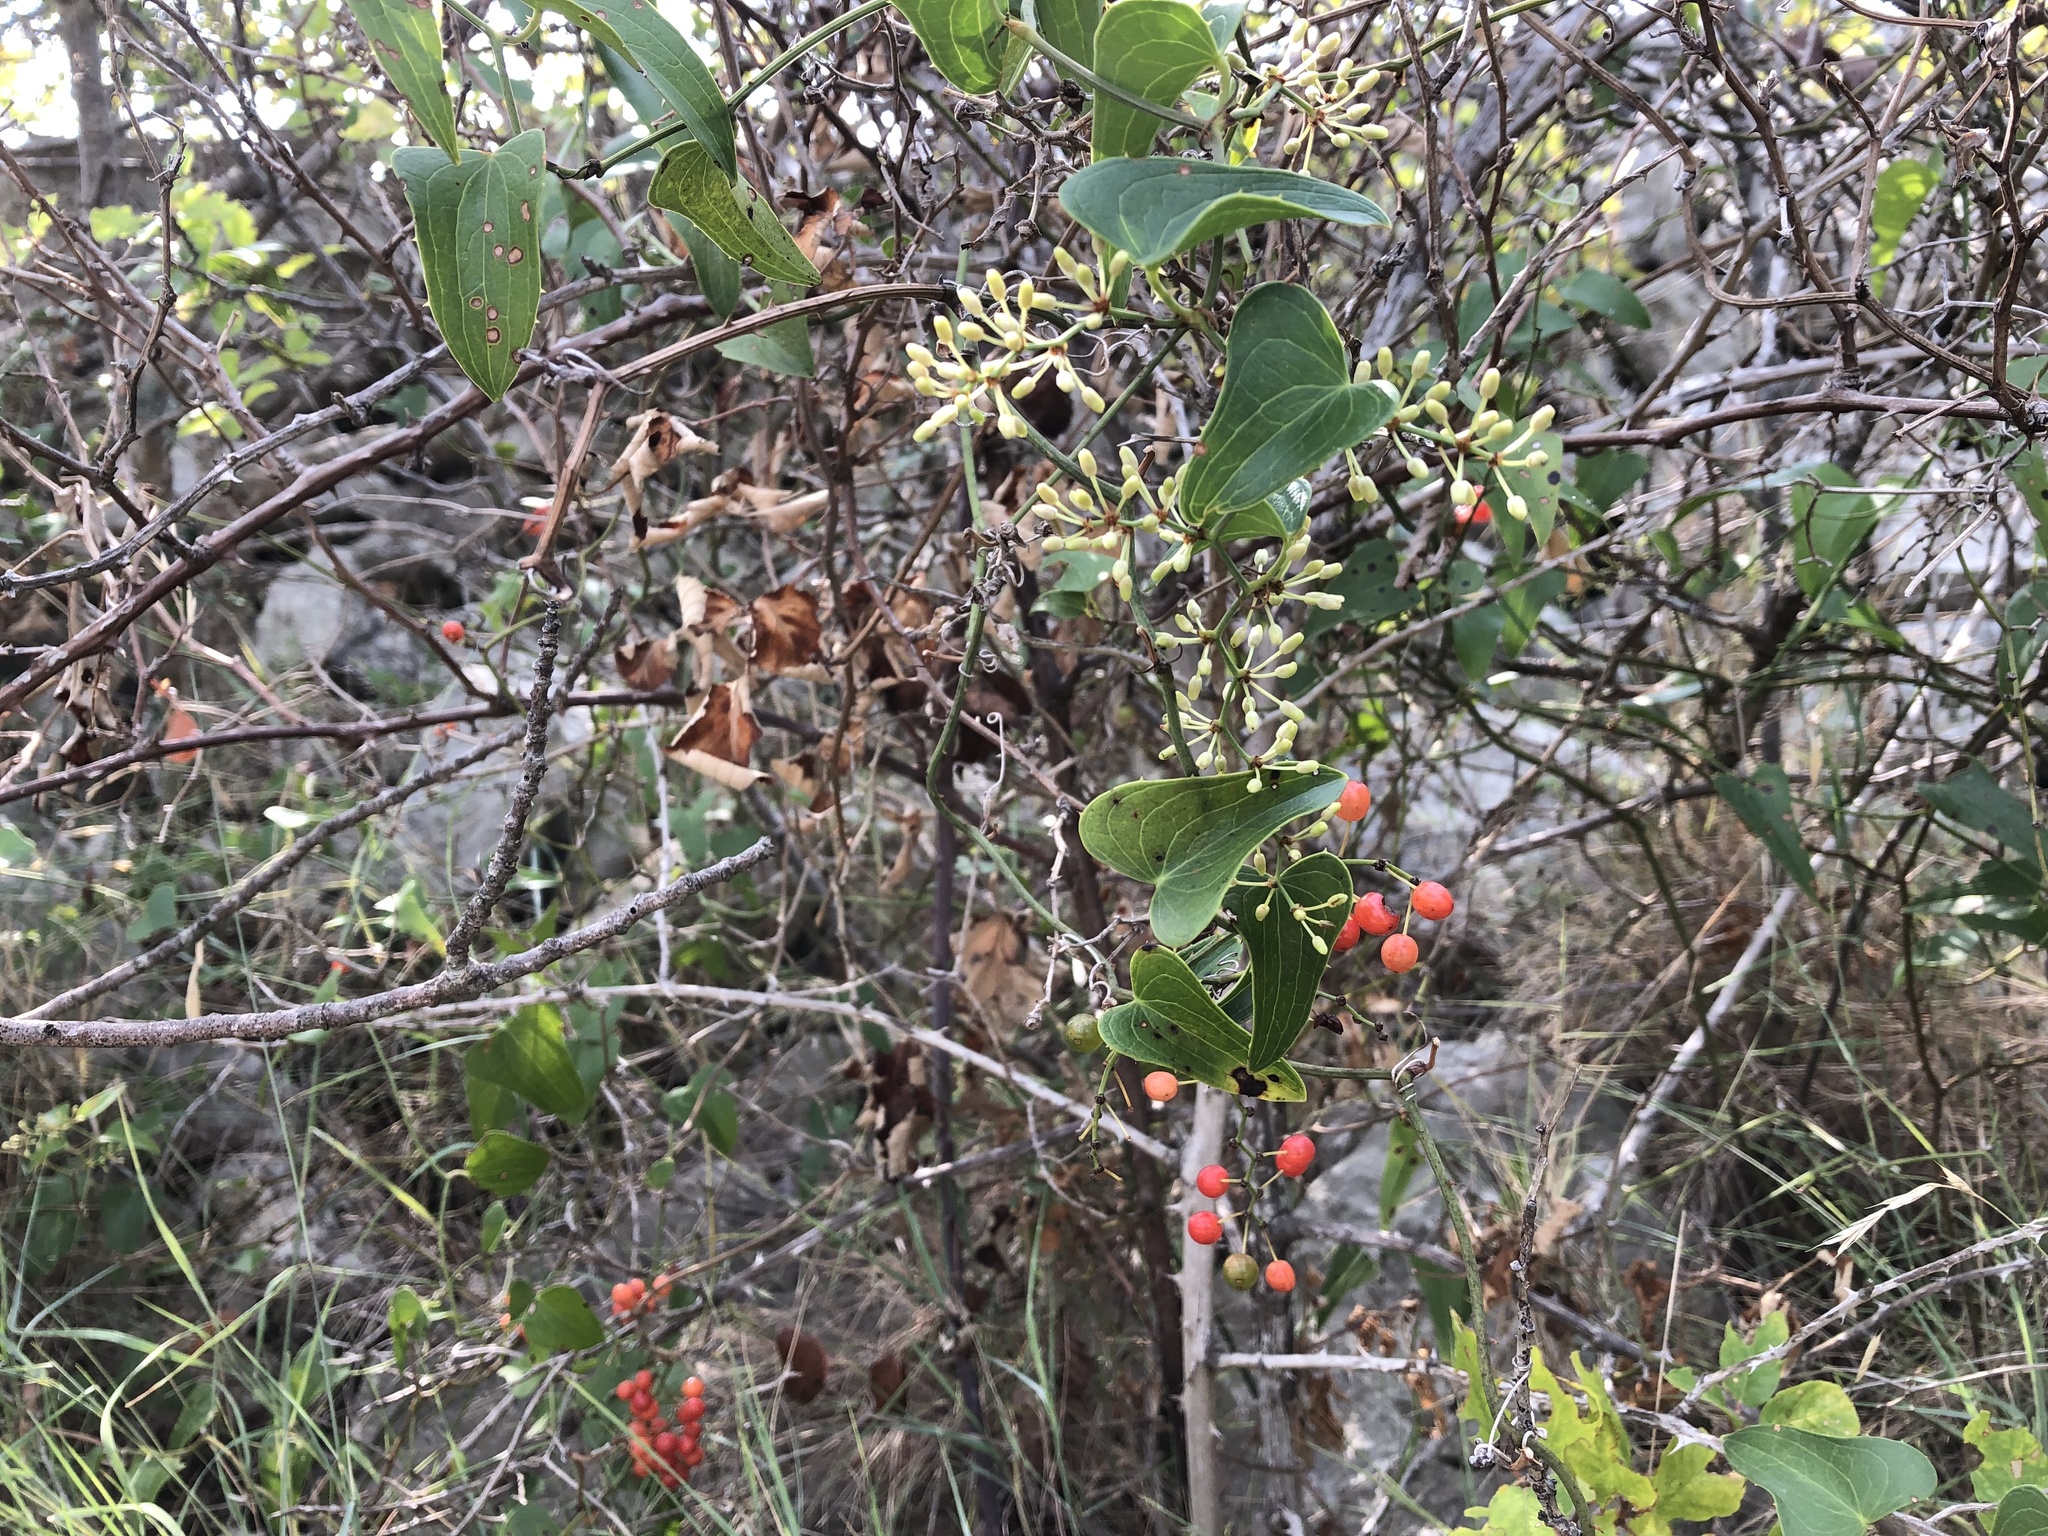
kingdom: Plantae
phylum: Tracheophyta
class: Liliopsida
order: Liliales
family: Smilacaceae
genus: Smilax
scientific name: Smilax aspera
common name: Common smilax
